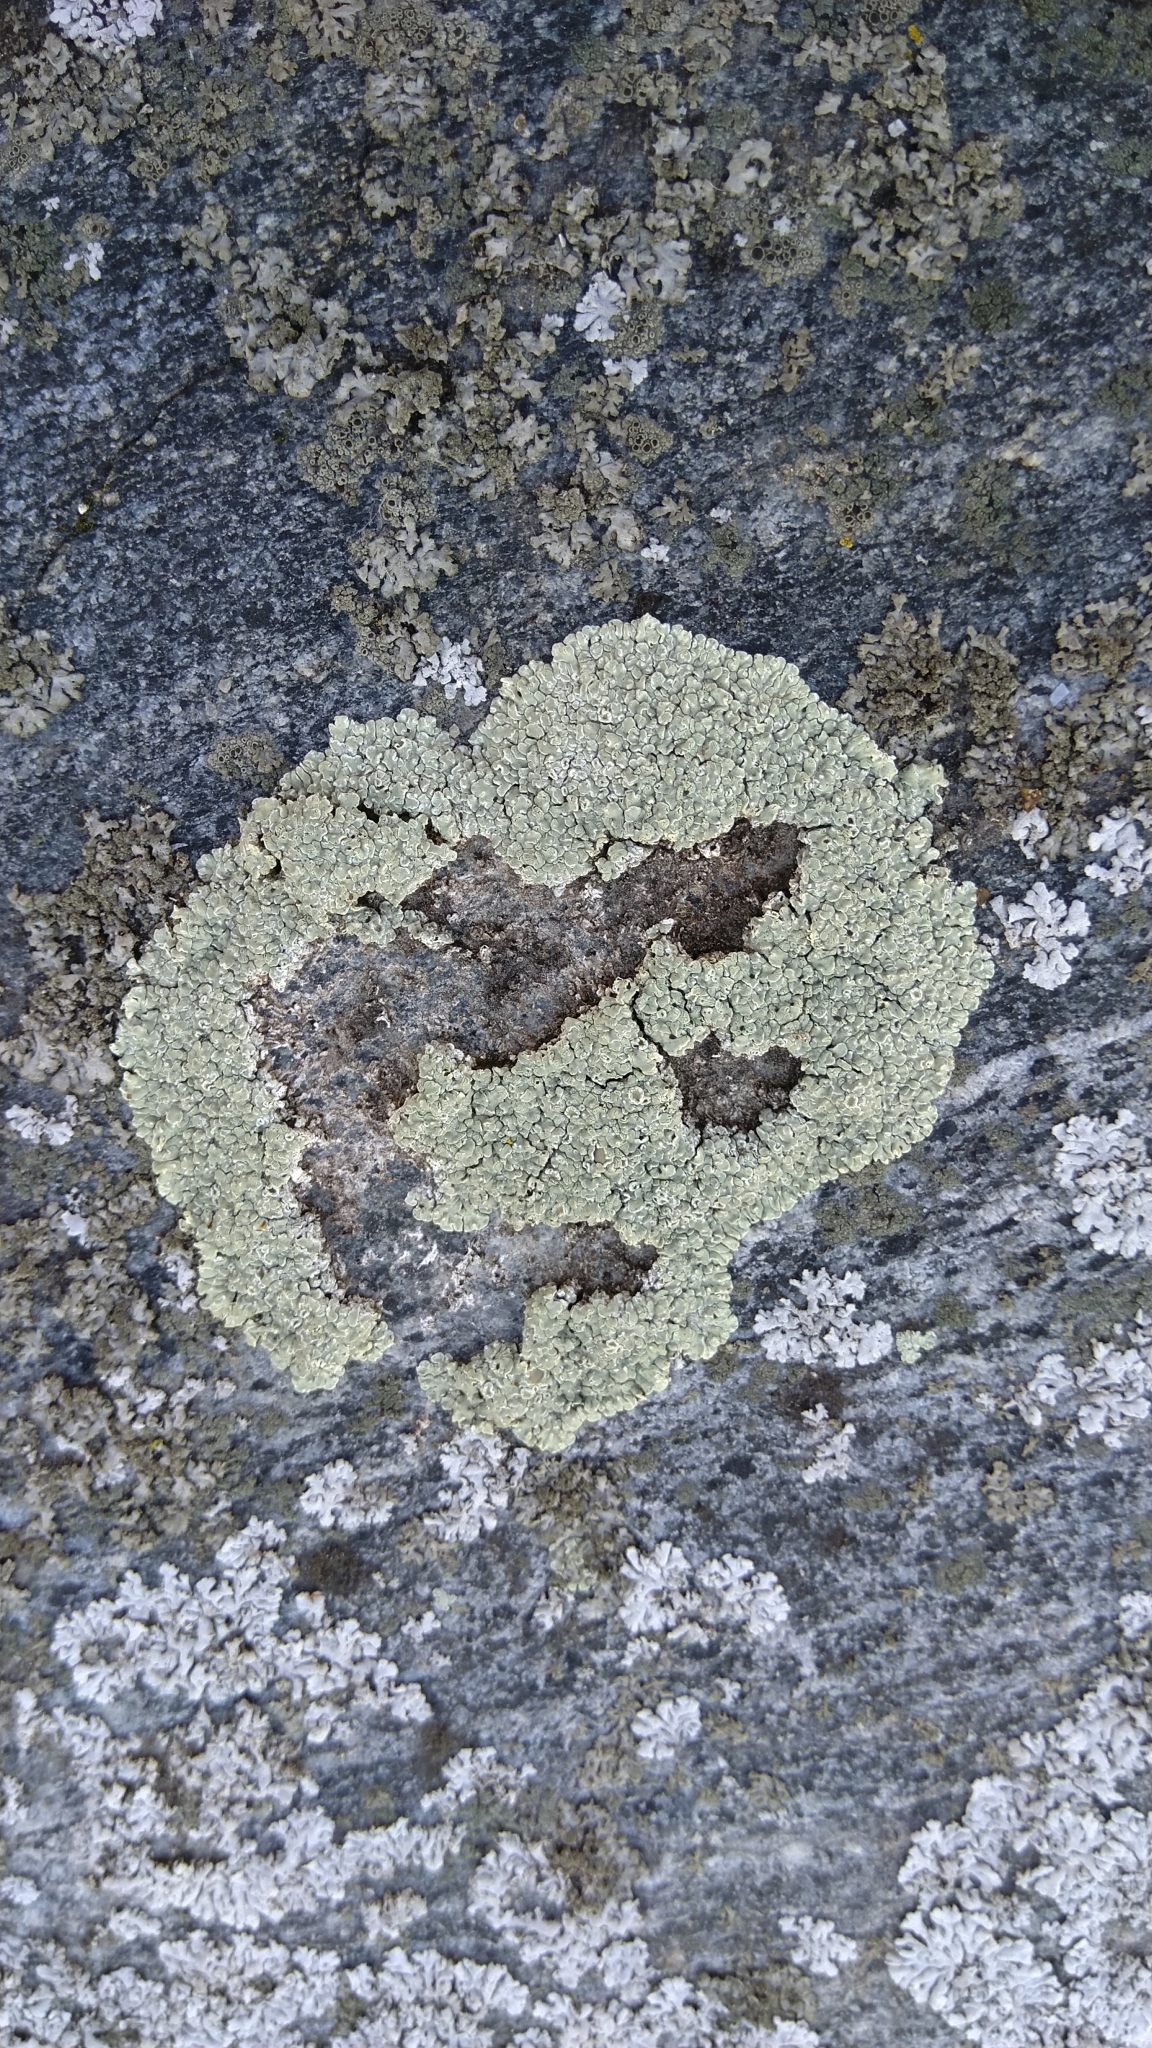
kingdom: Fungi
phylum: Ascomycota
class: Lecanoromycetes
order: Lecanorales
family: Lecanoraceae
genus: Protoparmeliopsis
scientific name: Protoparmeliopsis muralis
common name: Stonewall rim lichen
